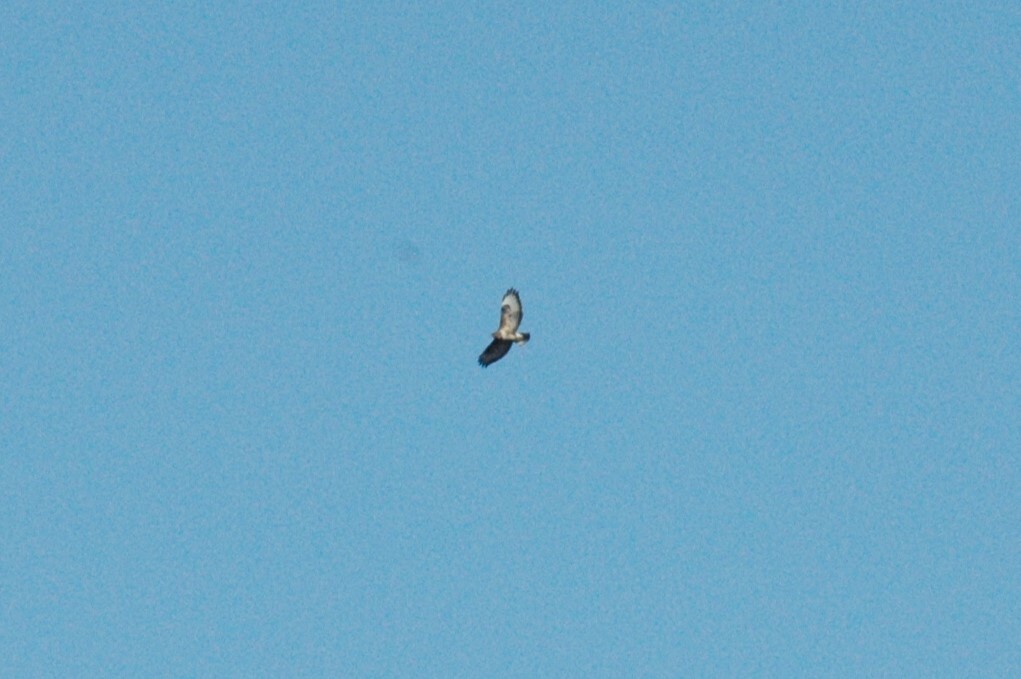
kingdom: Animalia
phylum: Chordata
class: Aves
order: Accipitriformes
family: Accipitridae
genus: Buteo
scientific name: Buteo buteo
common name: Common buzzard
